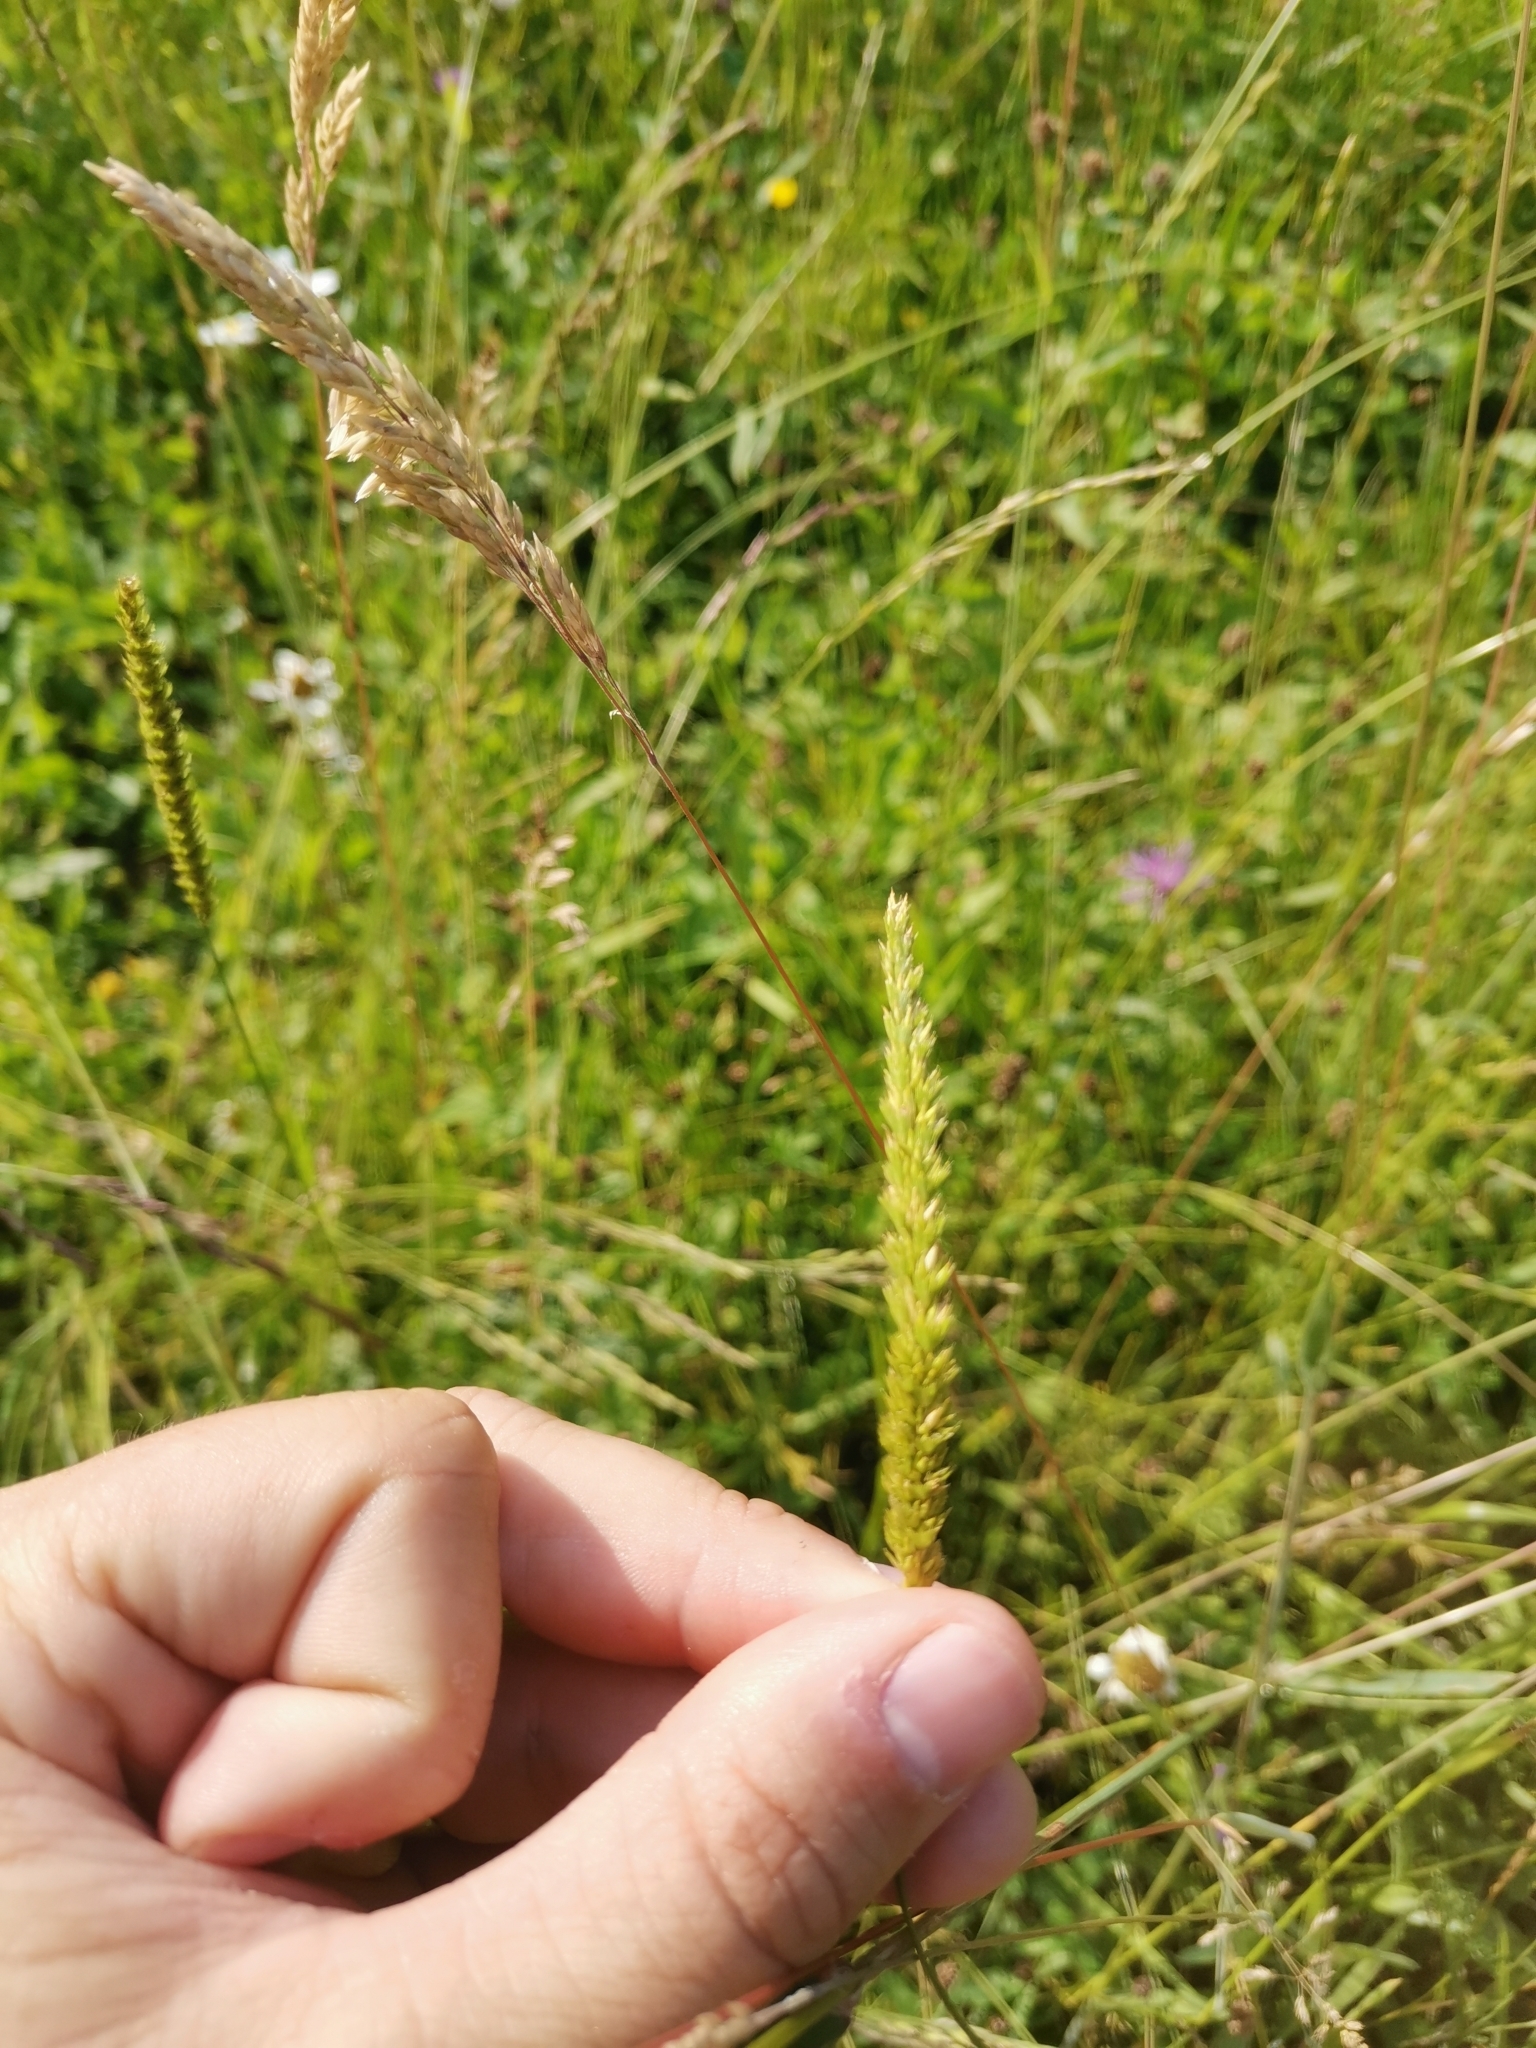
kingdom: Plantae
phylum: Tracheophyta
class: Liliopsida
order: Poales
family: Poaceae
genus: Cynosurus
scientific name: Cynosurus cristatus
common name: Crested dog's-tail
